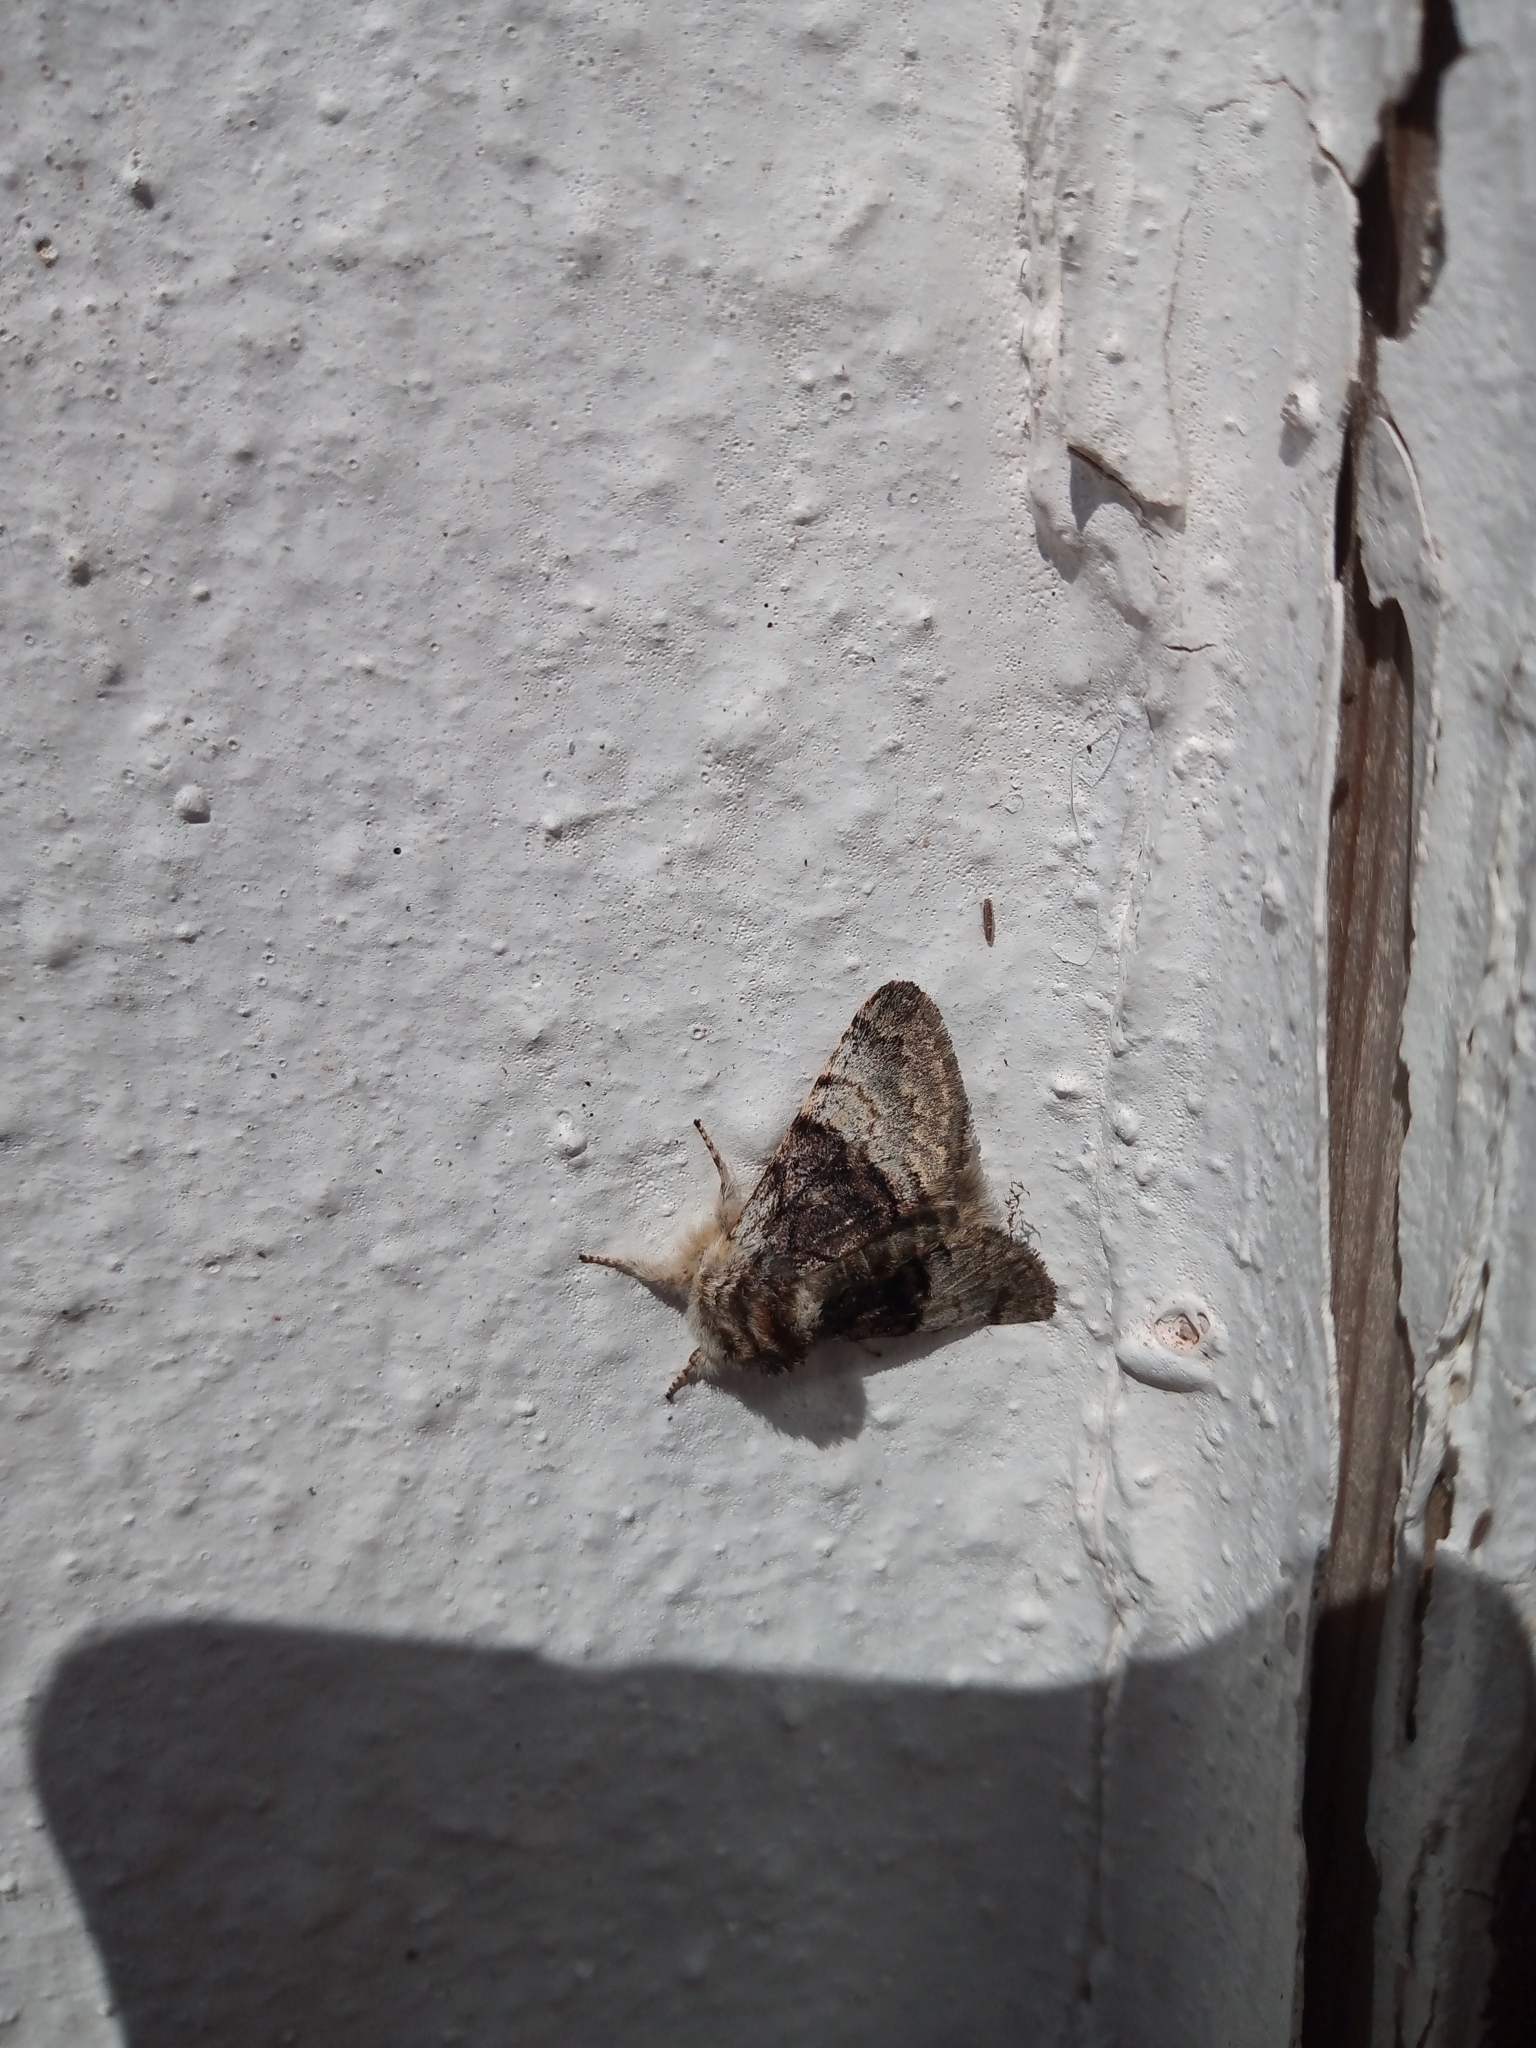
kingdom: Animalia
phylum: Arthropoda
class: Insecta
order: Lepidoptera
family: Noctuidae
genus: Colocasia
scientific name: Colocasia coryli
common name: Nut-tree tussock
